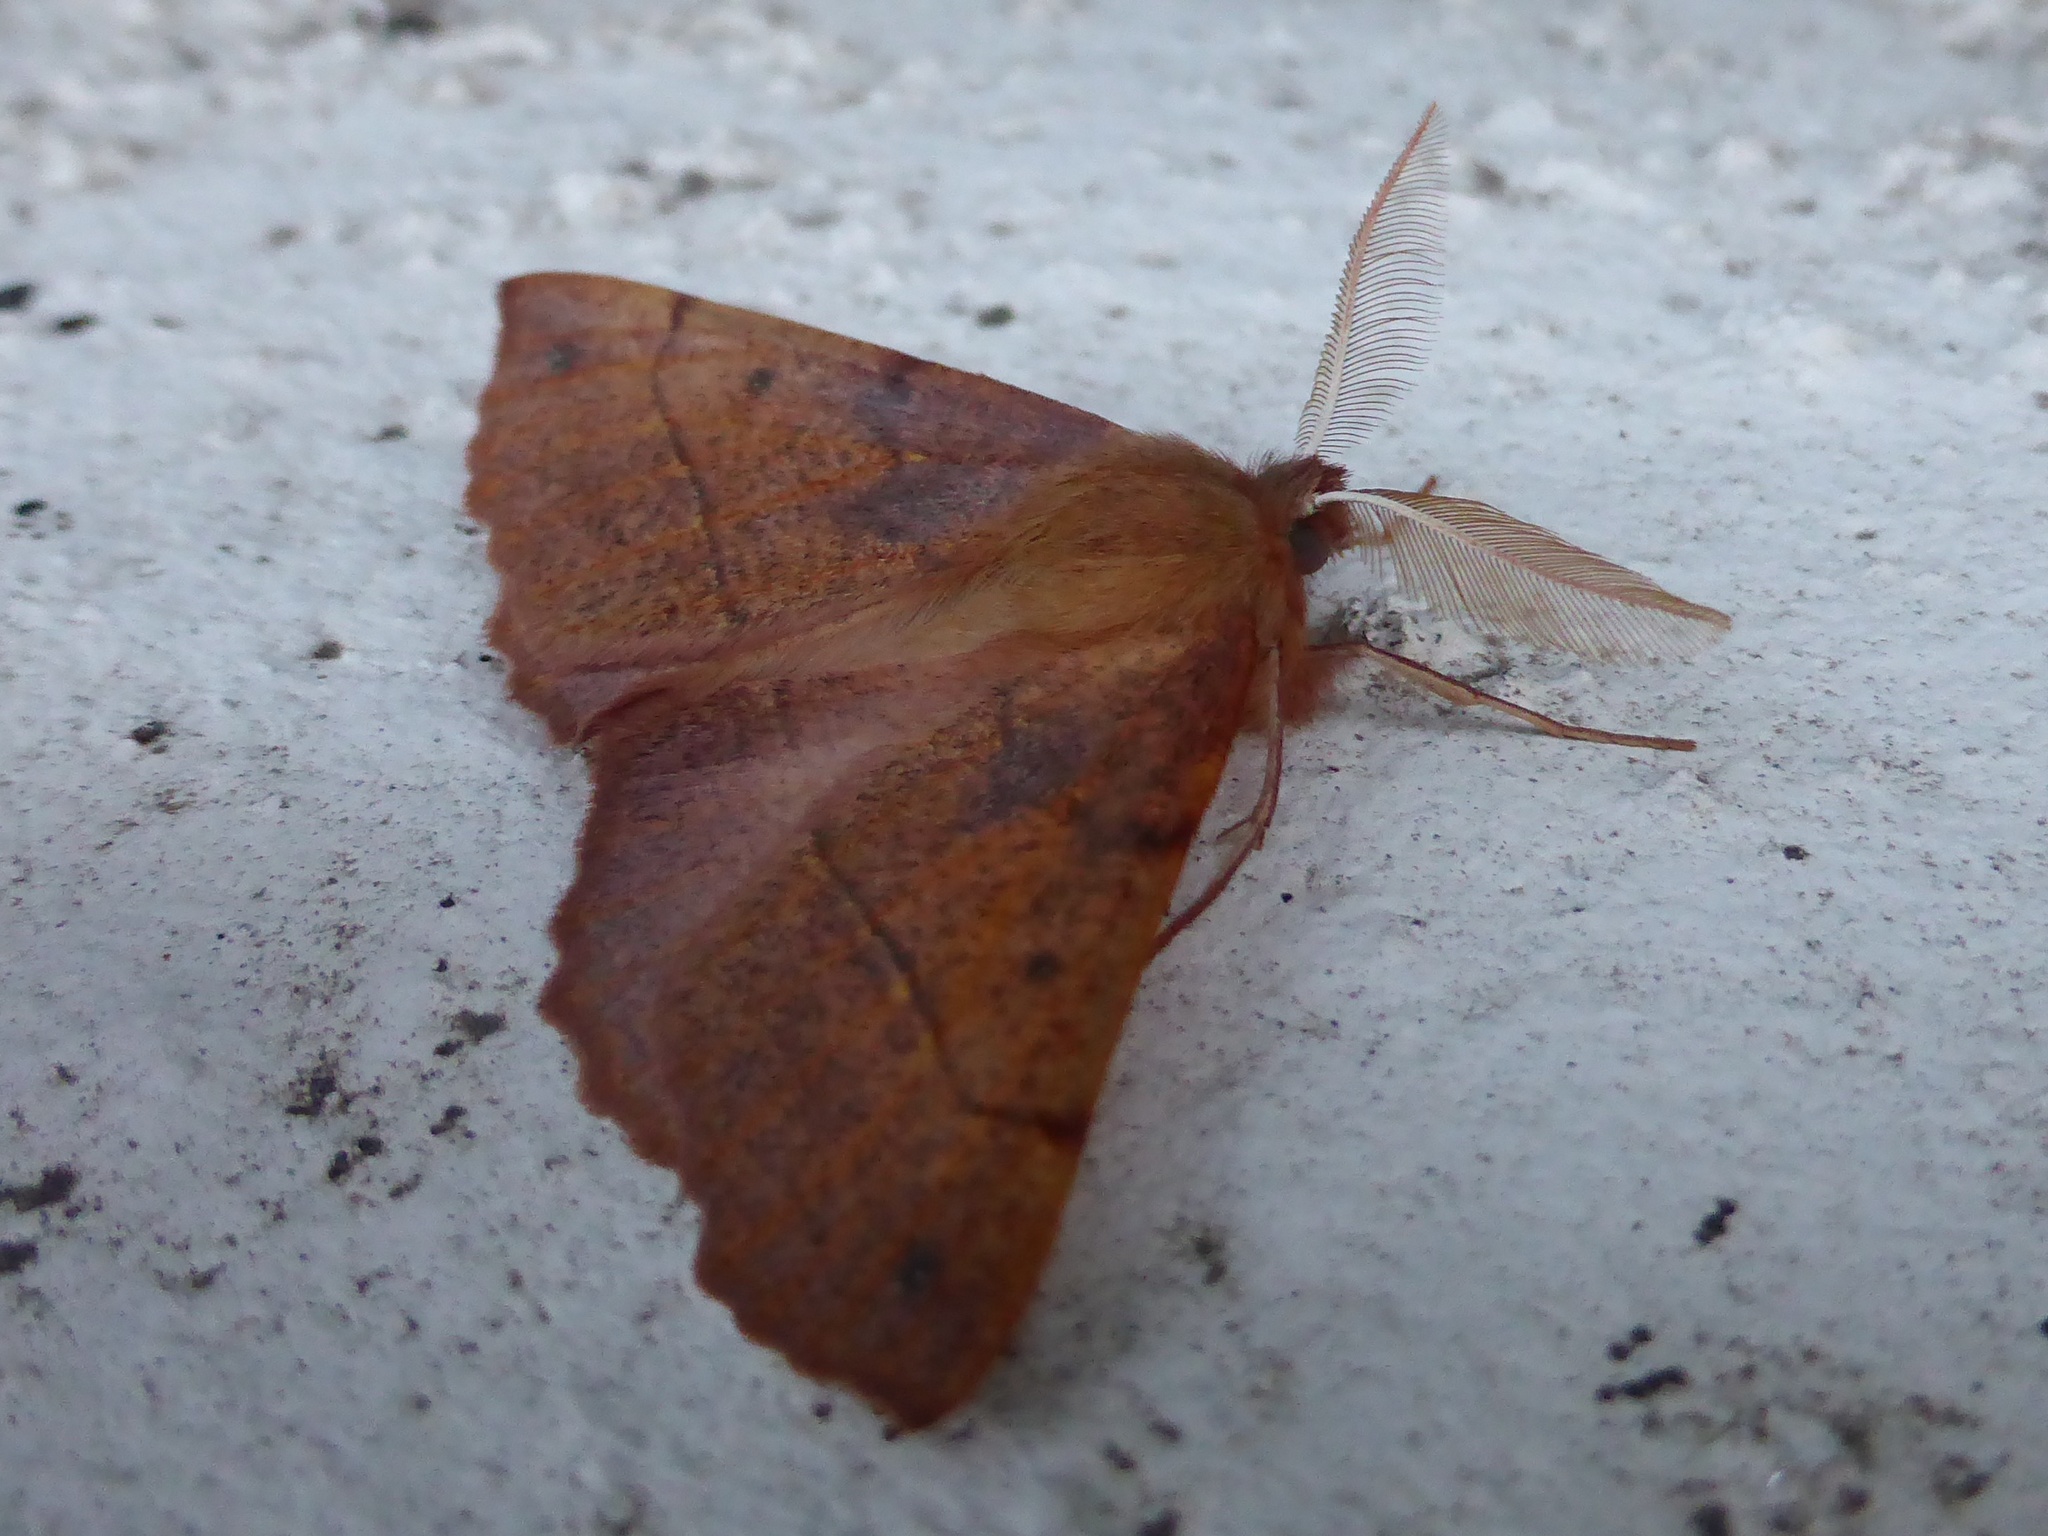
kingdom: Animalia
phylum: Arthropoda
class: Insecta
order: Lepidoptera
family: Geometridae
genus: Colotois
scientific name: Colotois pennaria
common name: Feathered thorn
